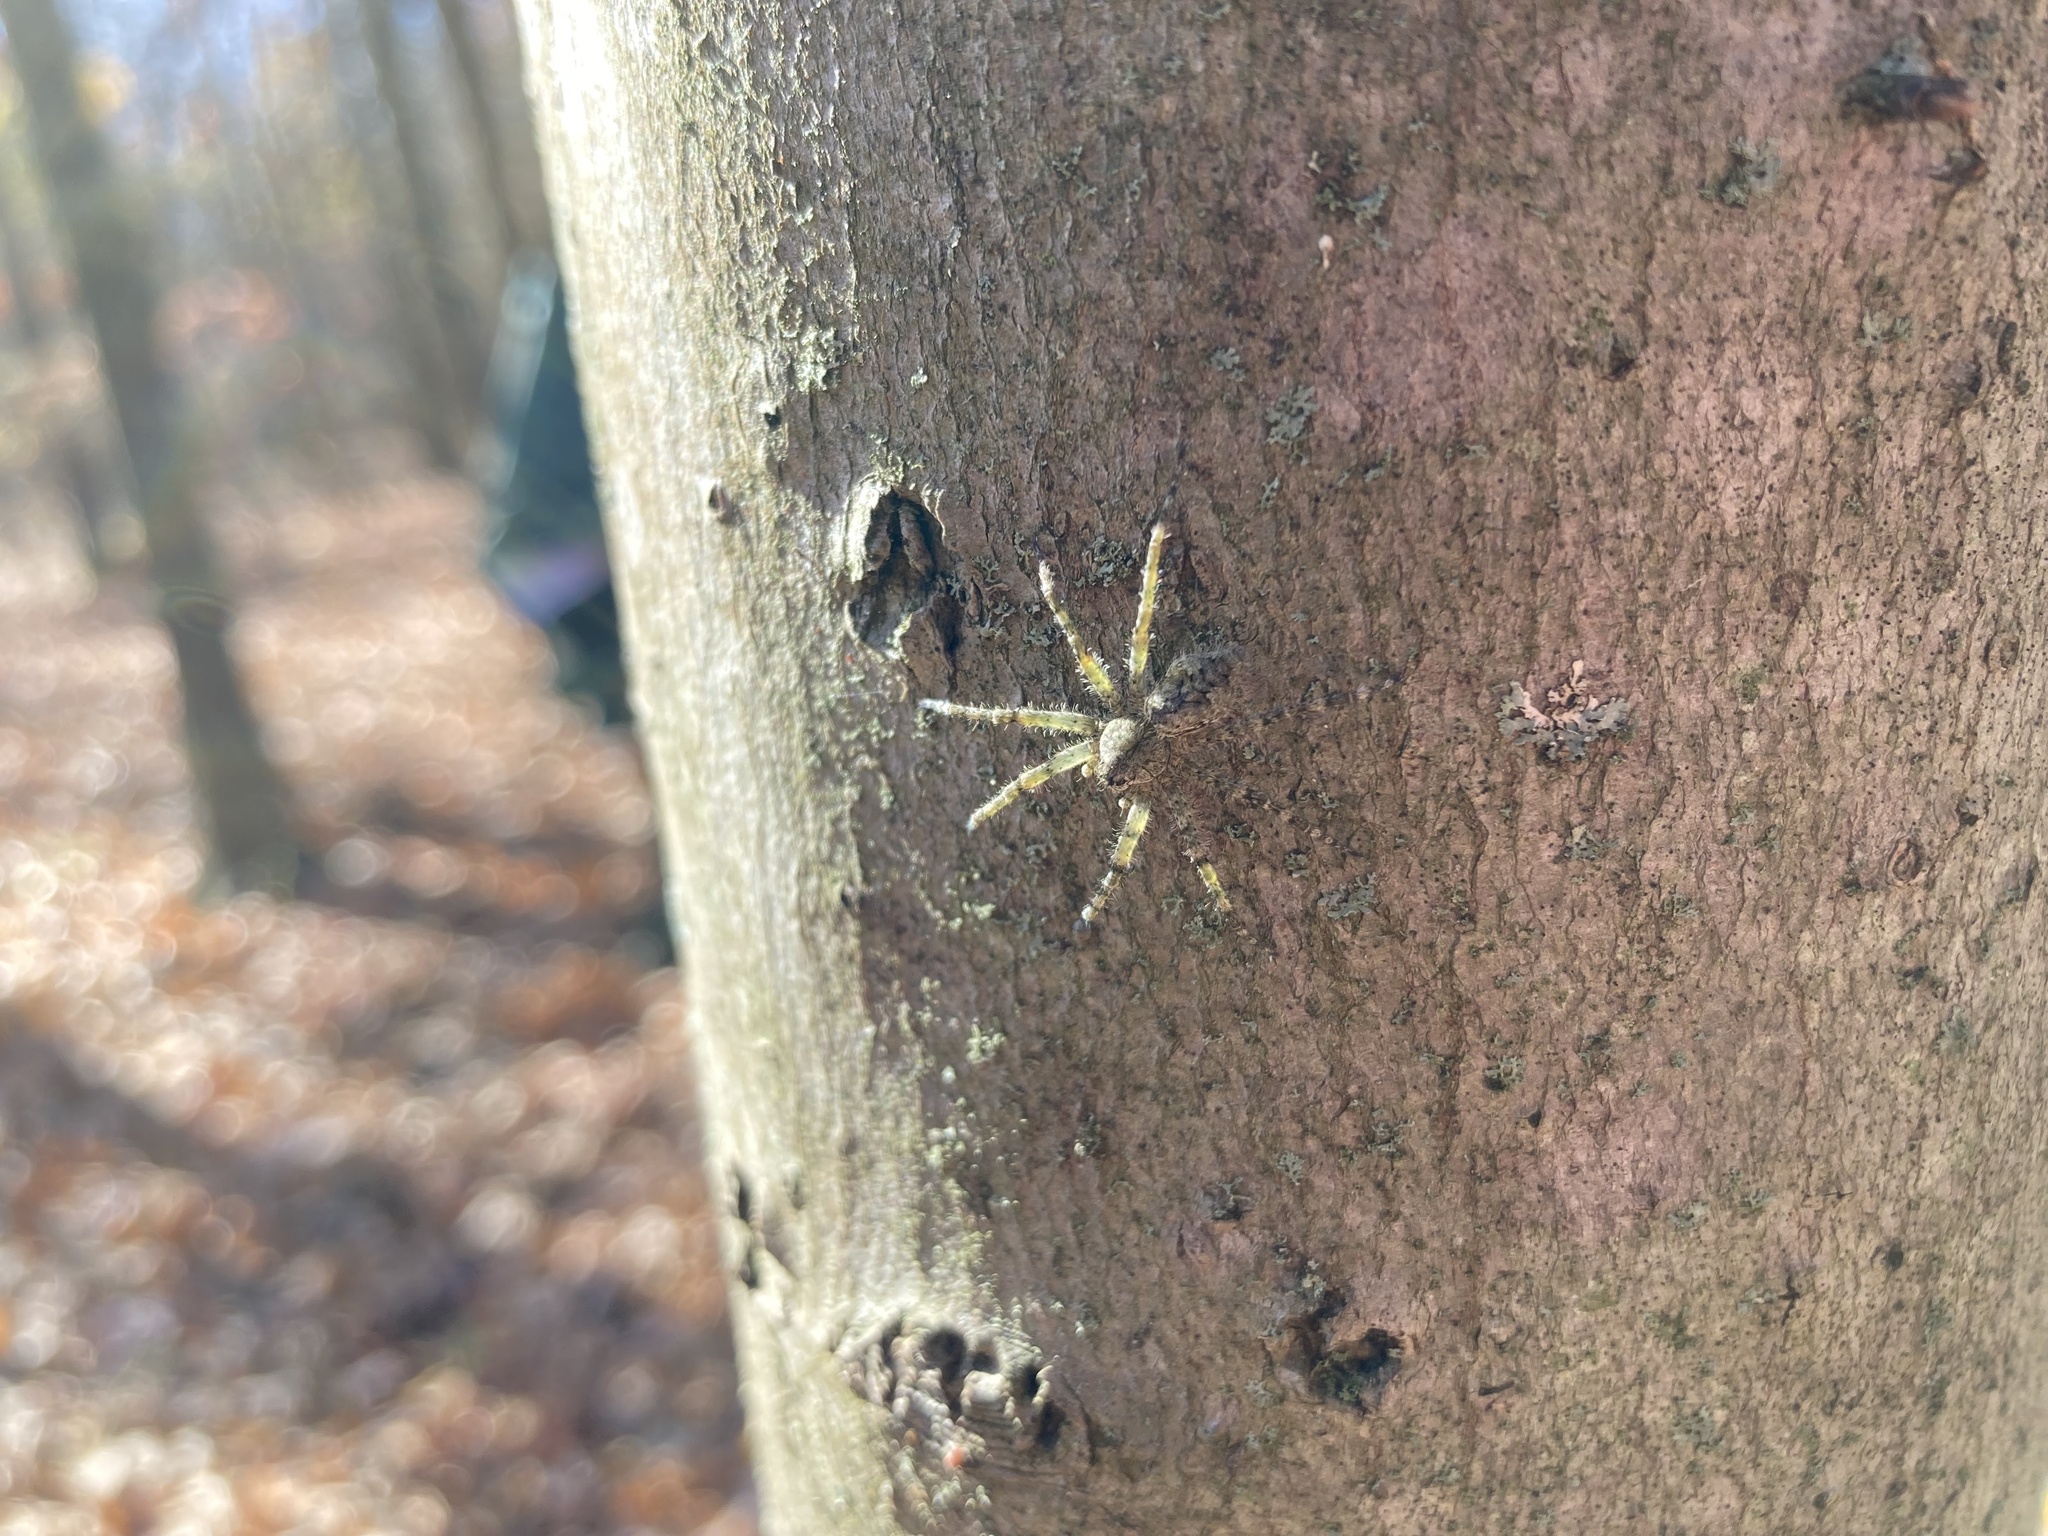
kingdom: Animalia
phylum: Arthropoda
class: Arachnida
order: Araneae
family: Pisauridae
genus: Dolomedes
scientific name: Dolomedes albineus
